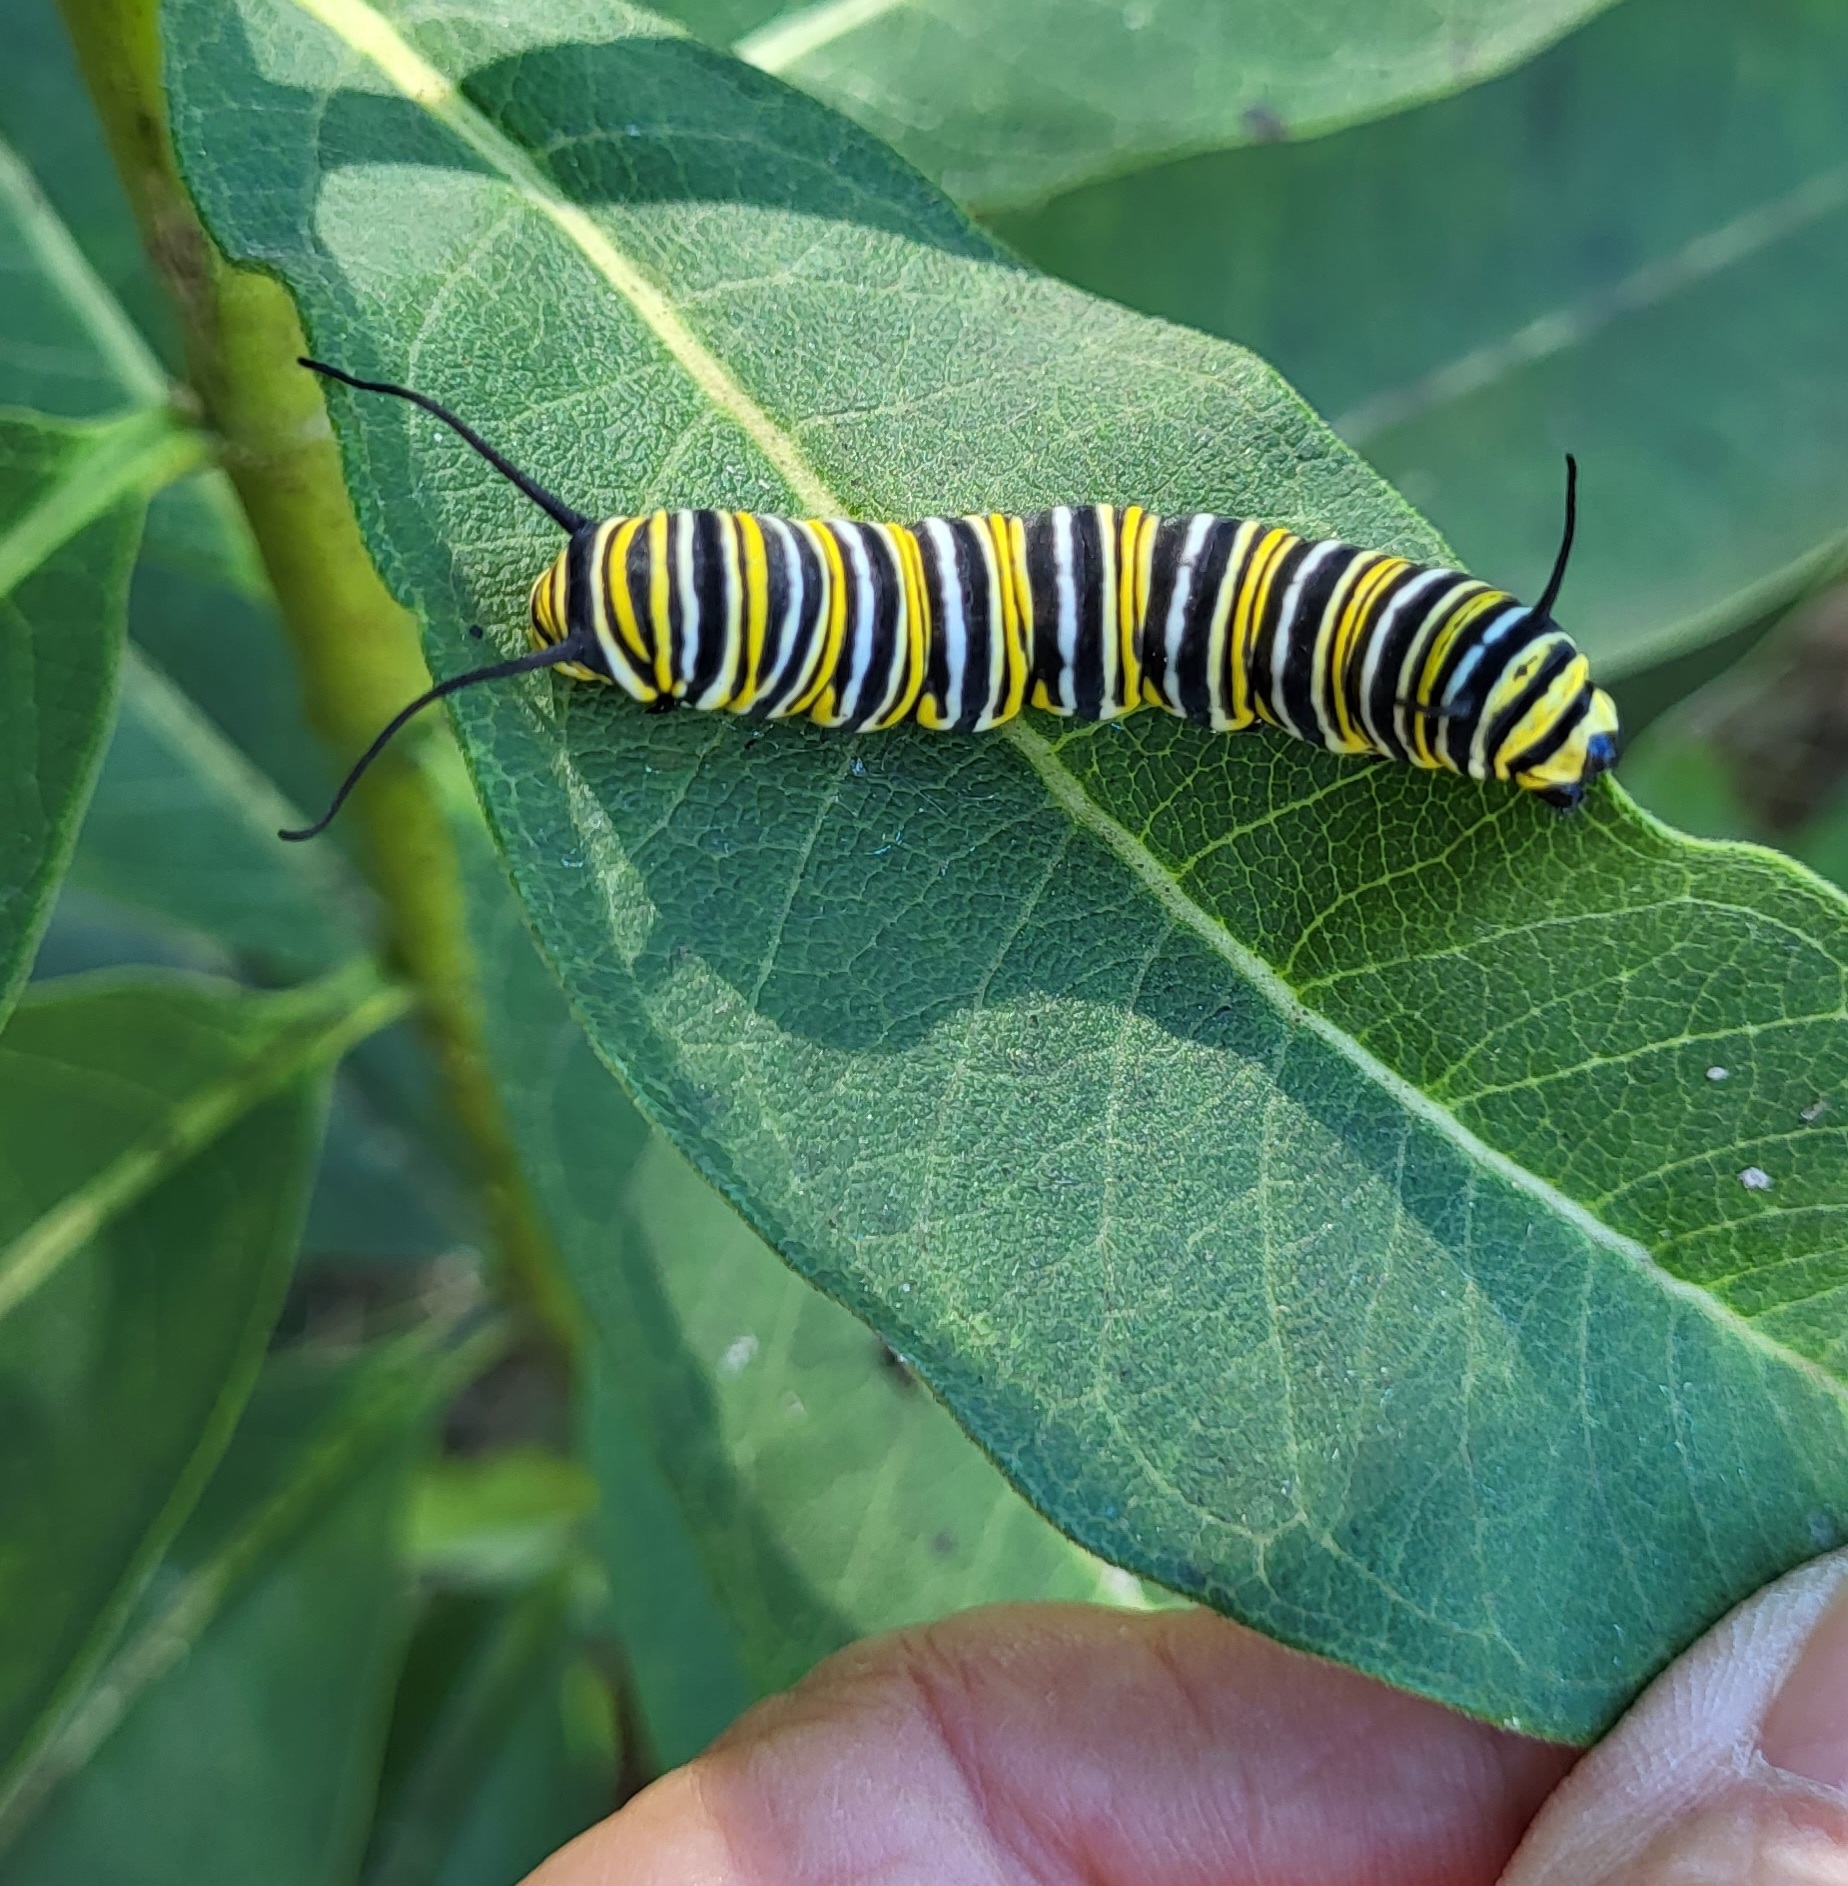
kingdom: Animalia
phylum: Arthropoda
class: Insecta
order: Lepidoptera
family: Nymphalidae
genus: Danaus
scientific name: Danaus plexippus
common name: Monarch
